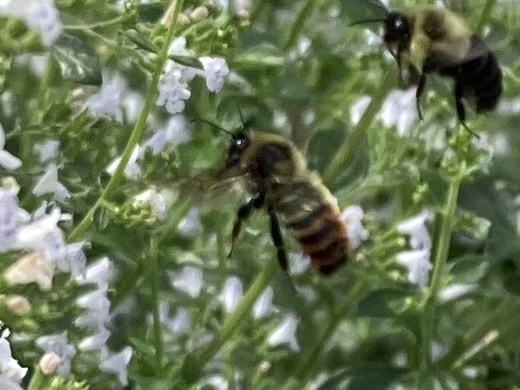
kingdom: Animalia
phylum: Arthropoda
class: Insecta
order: Hymenoptera
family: Apidae
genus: Bombus
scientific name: Bombus rufocinctus
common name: Red-belted bumble bee
